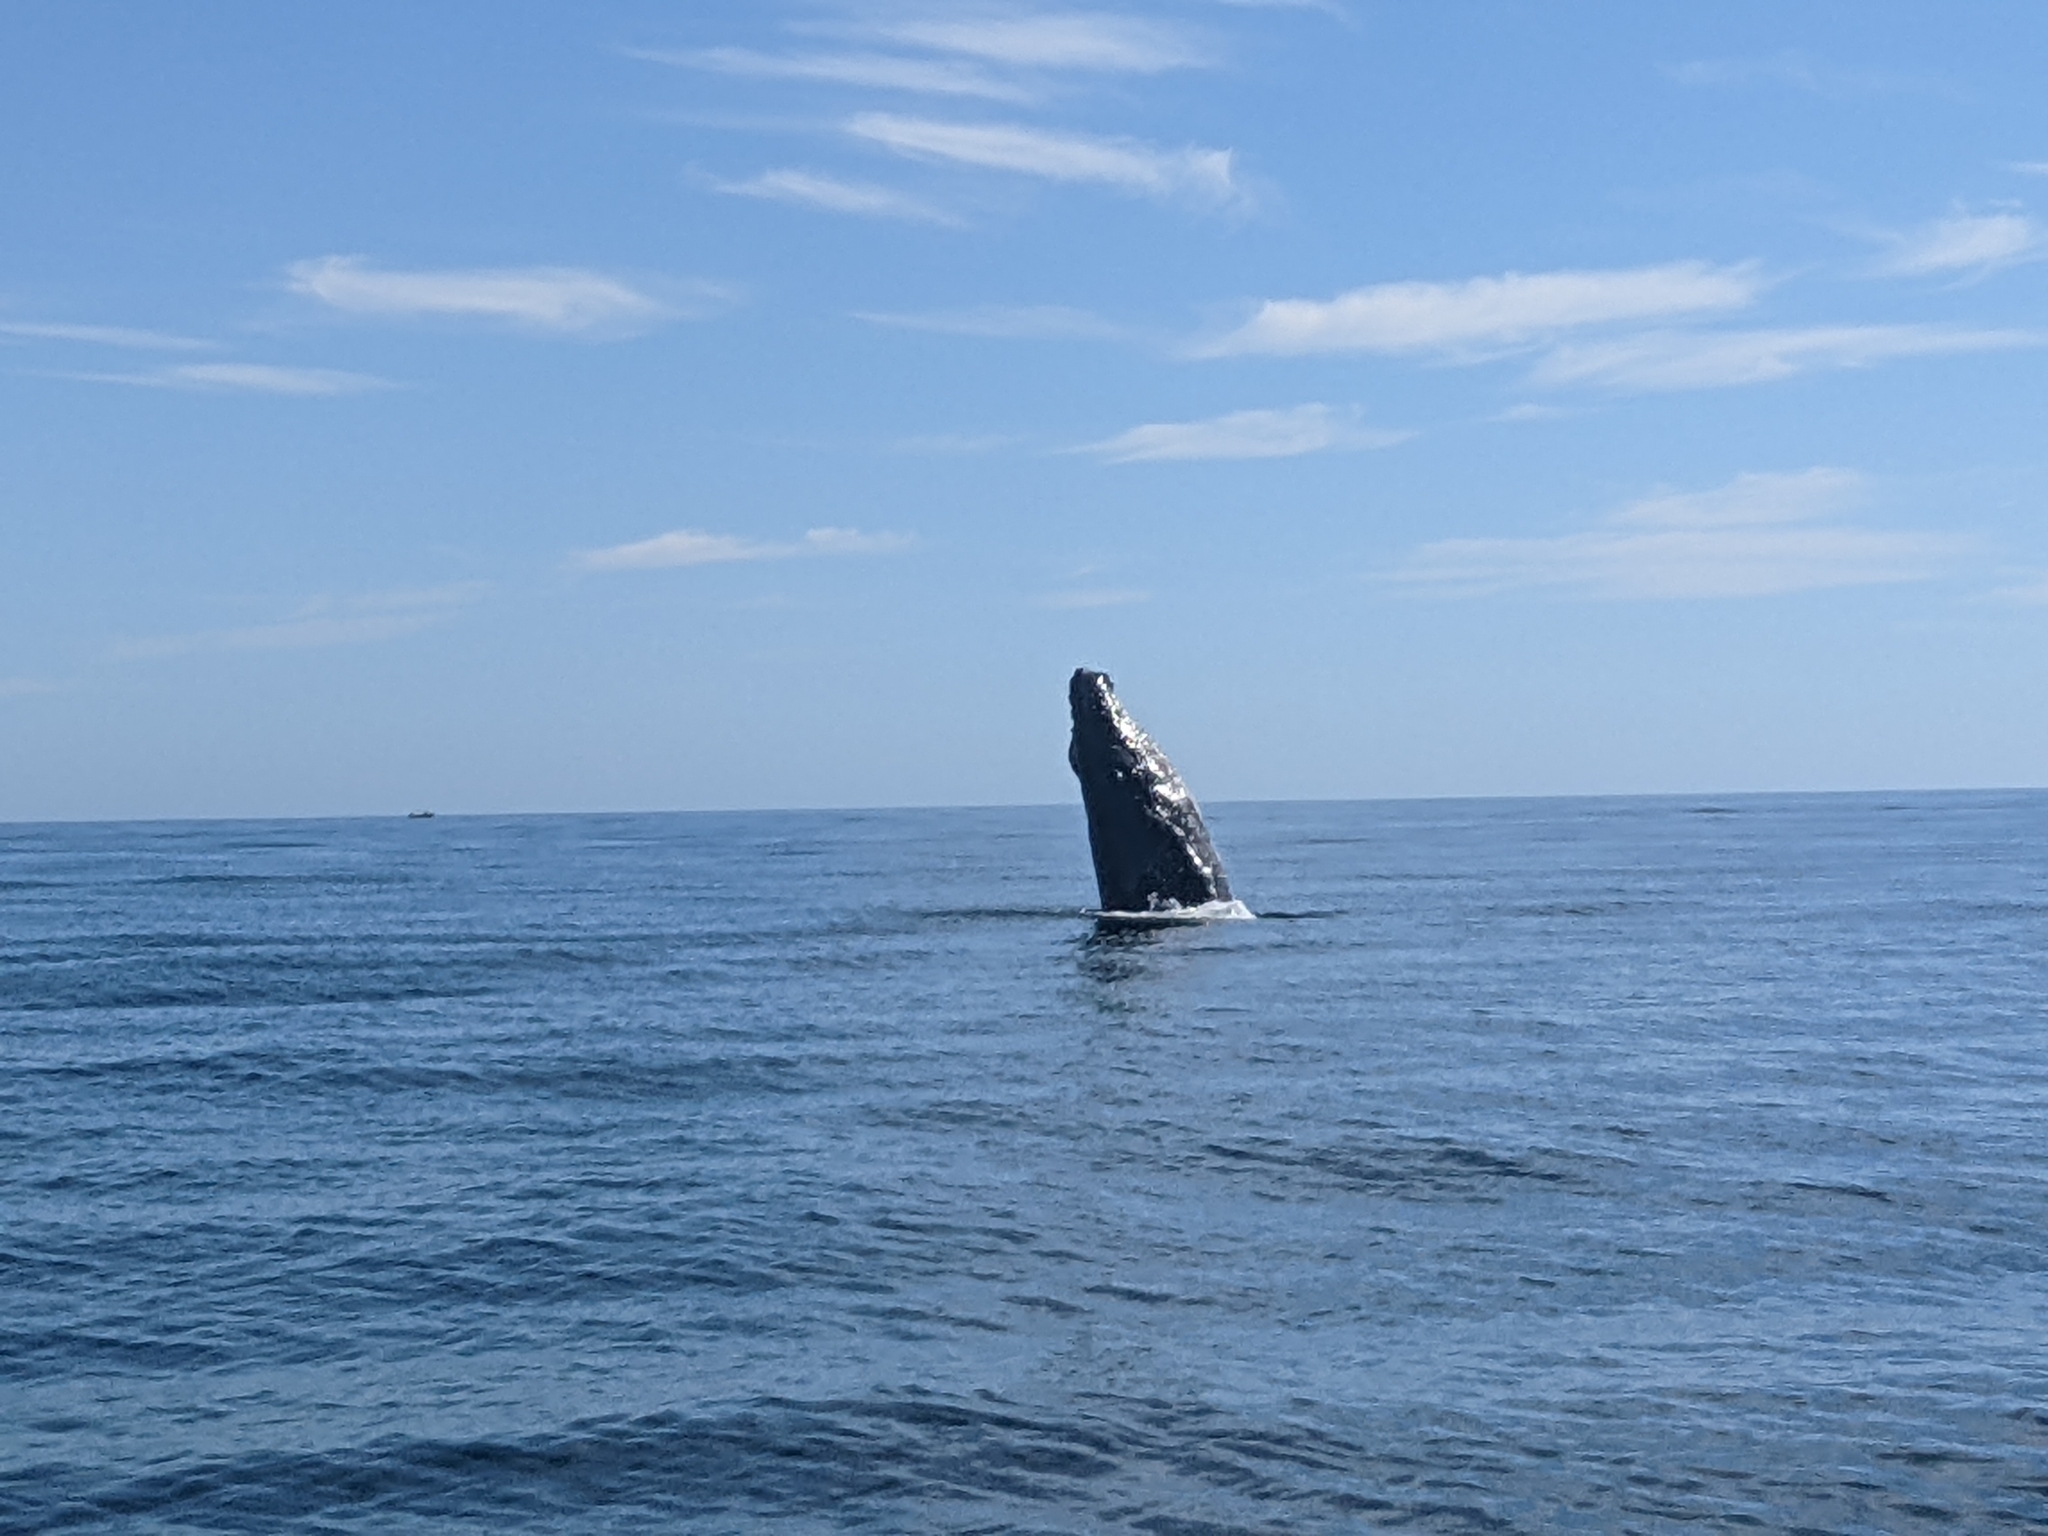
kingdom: Animalia
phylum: Chordata
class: Mammalia
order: Cetacea
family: Balaenopteridae
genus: Megaptera
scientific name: Megaptera novaeangliae
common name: Humpback whale
